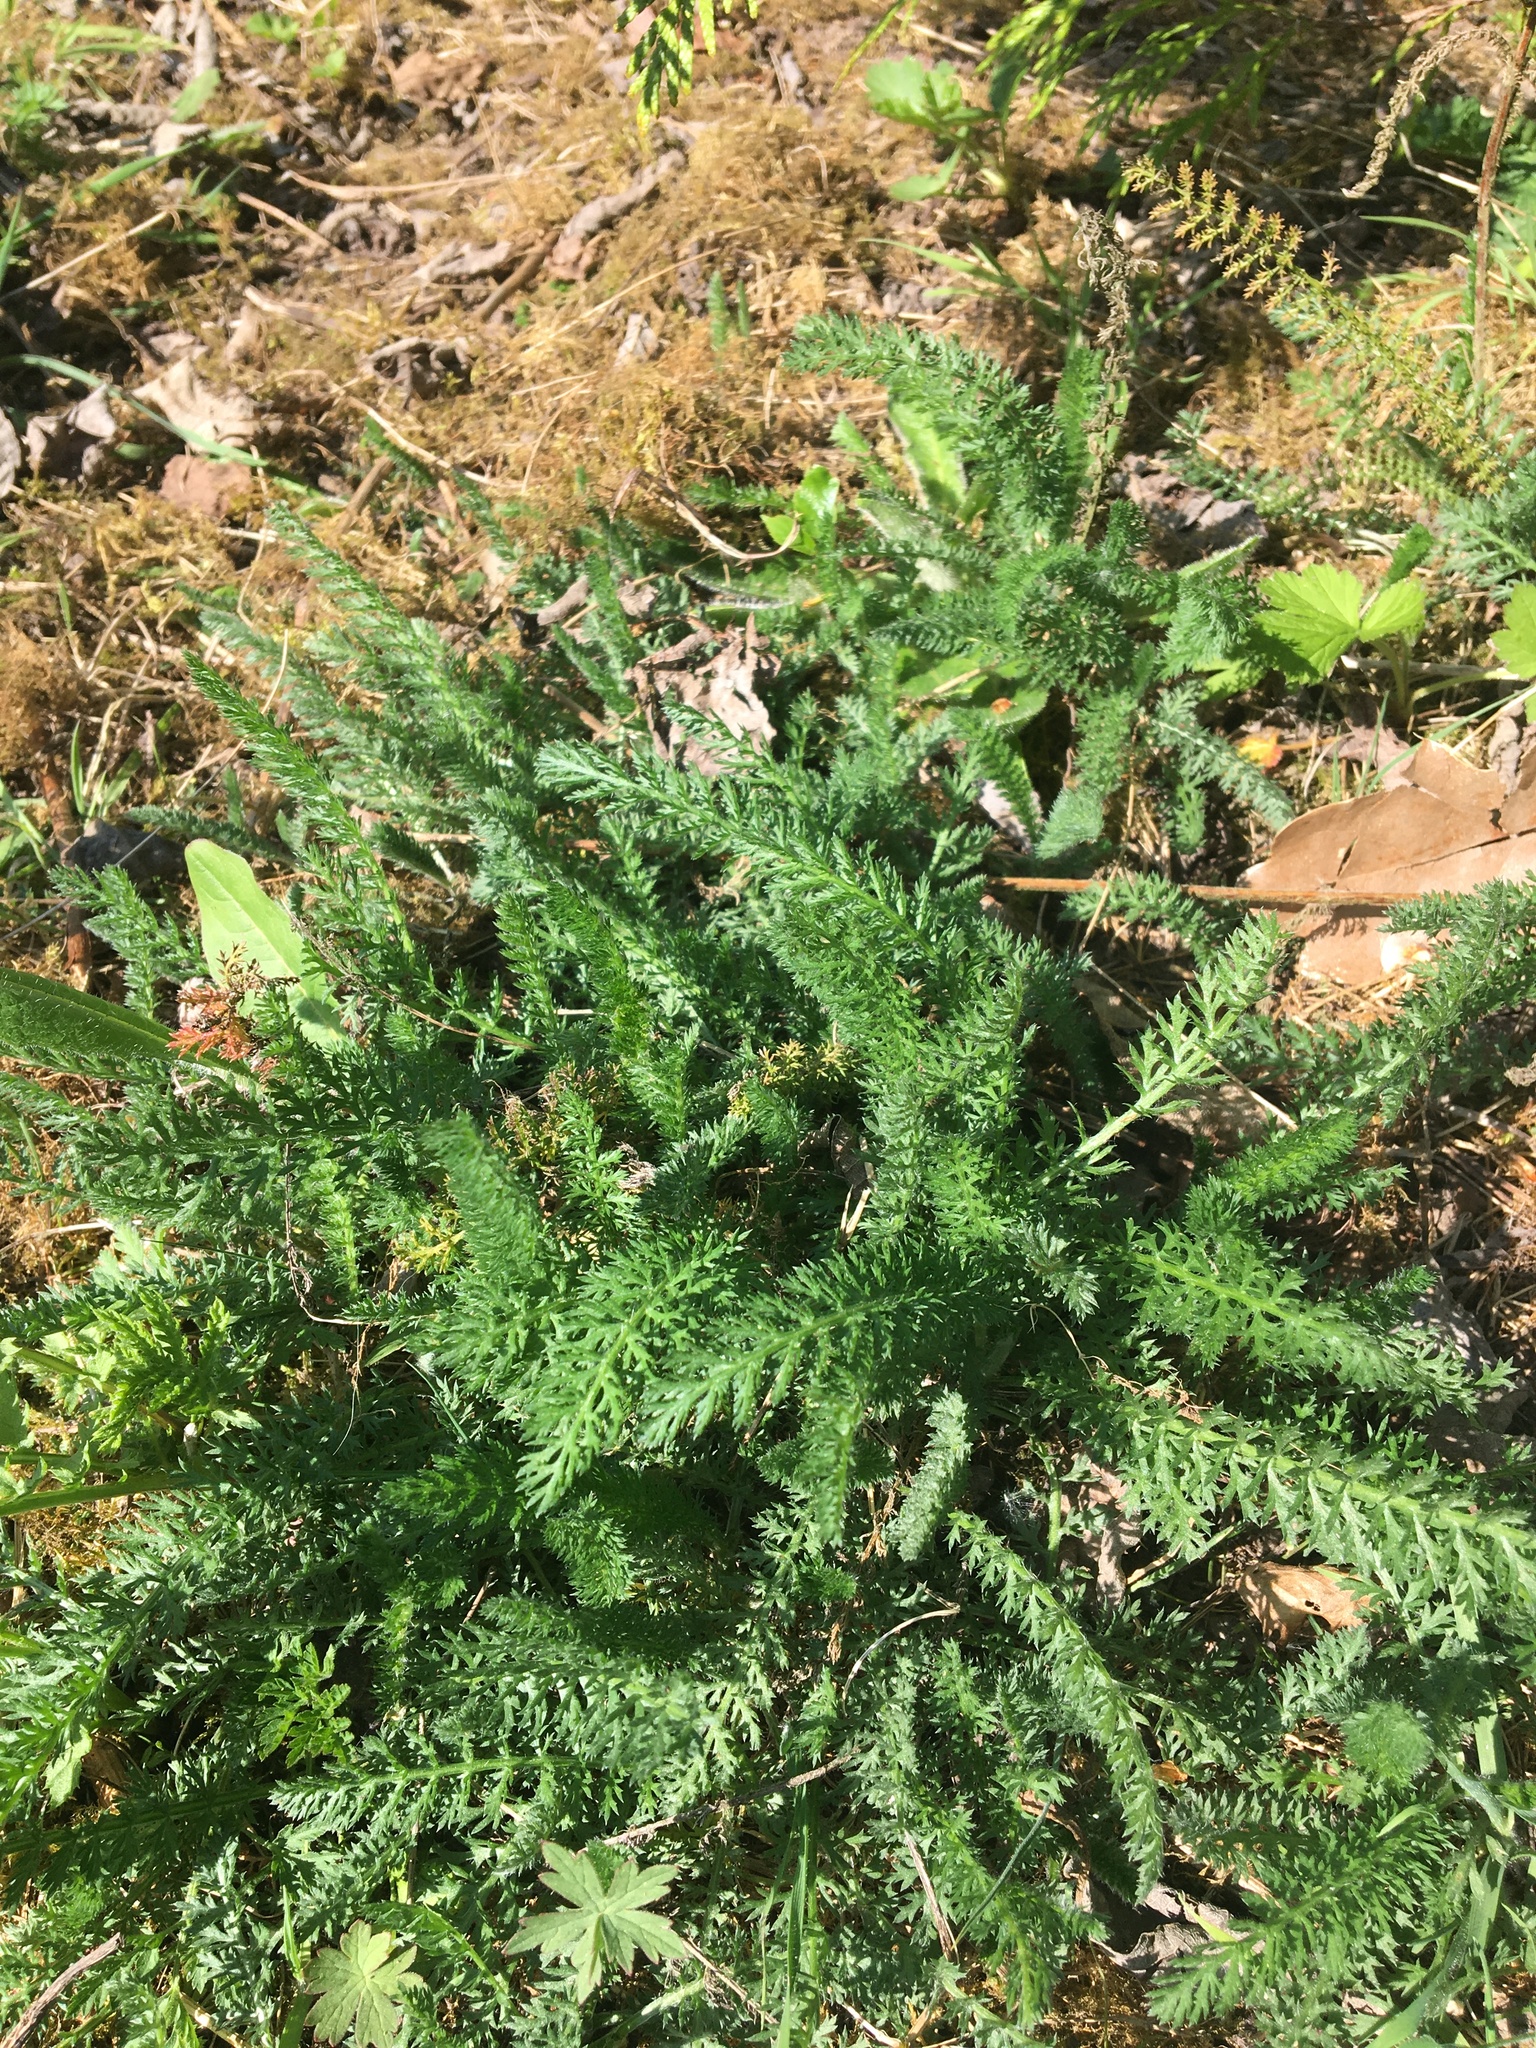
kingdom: Plantae
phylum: Tracheophyta
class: Magnoliopsida
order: Asterales
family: Asteraceae
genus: Achillea
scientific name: Achillea millefolium
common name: Yarrow
